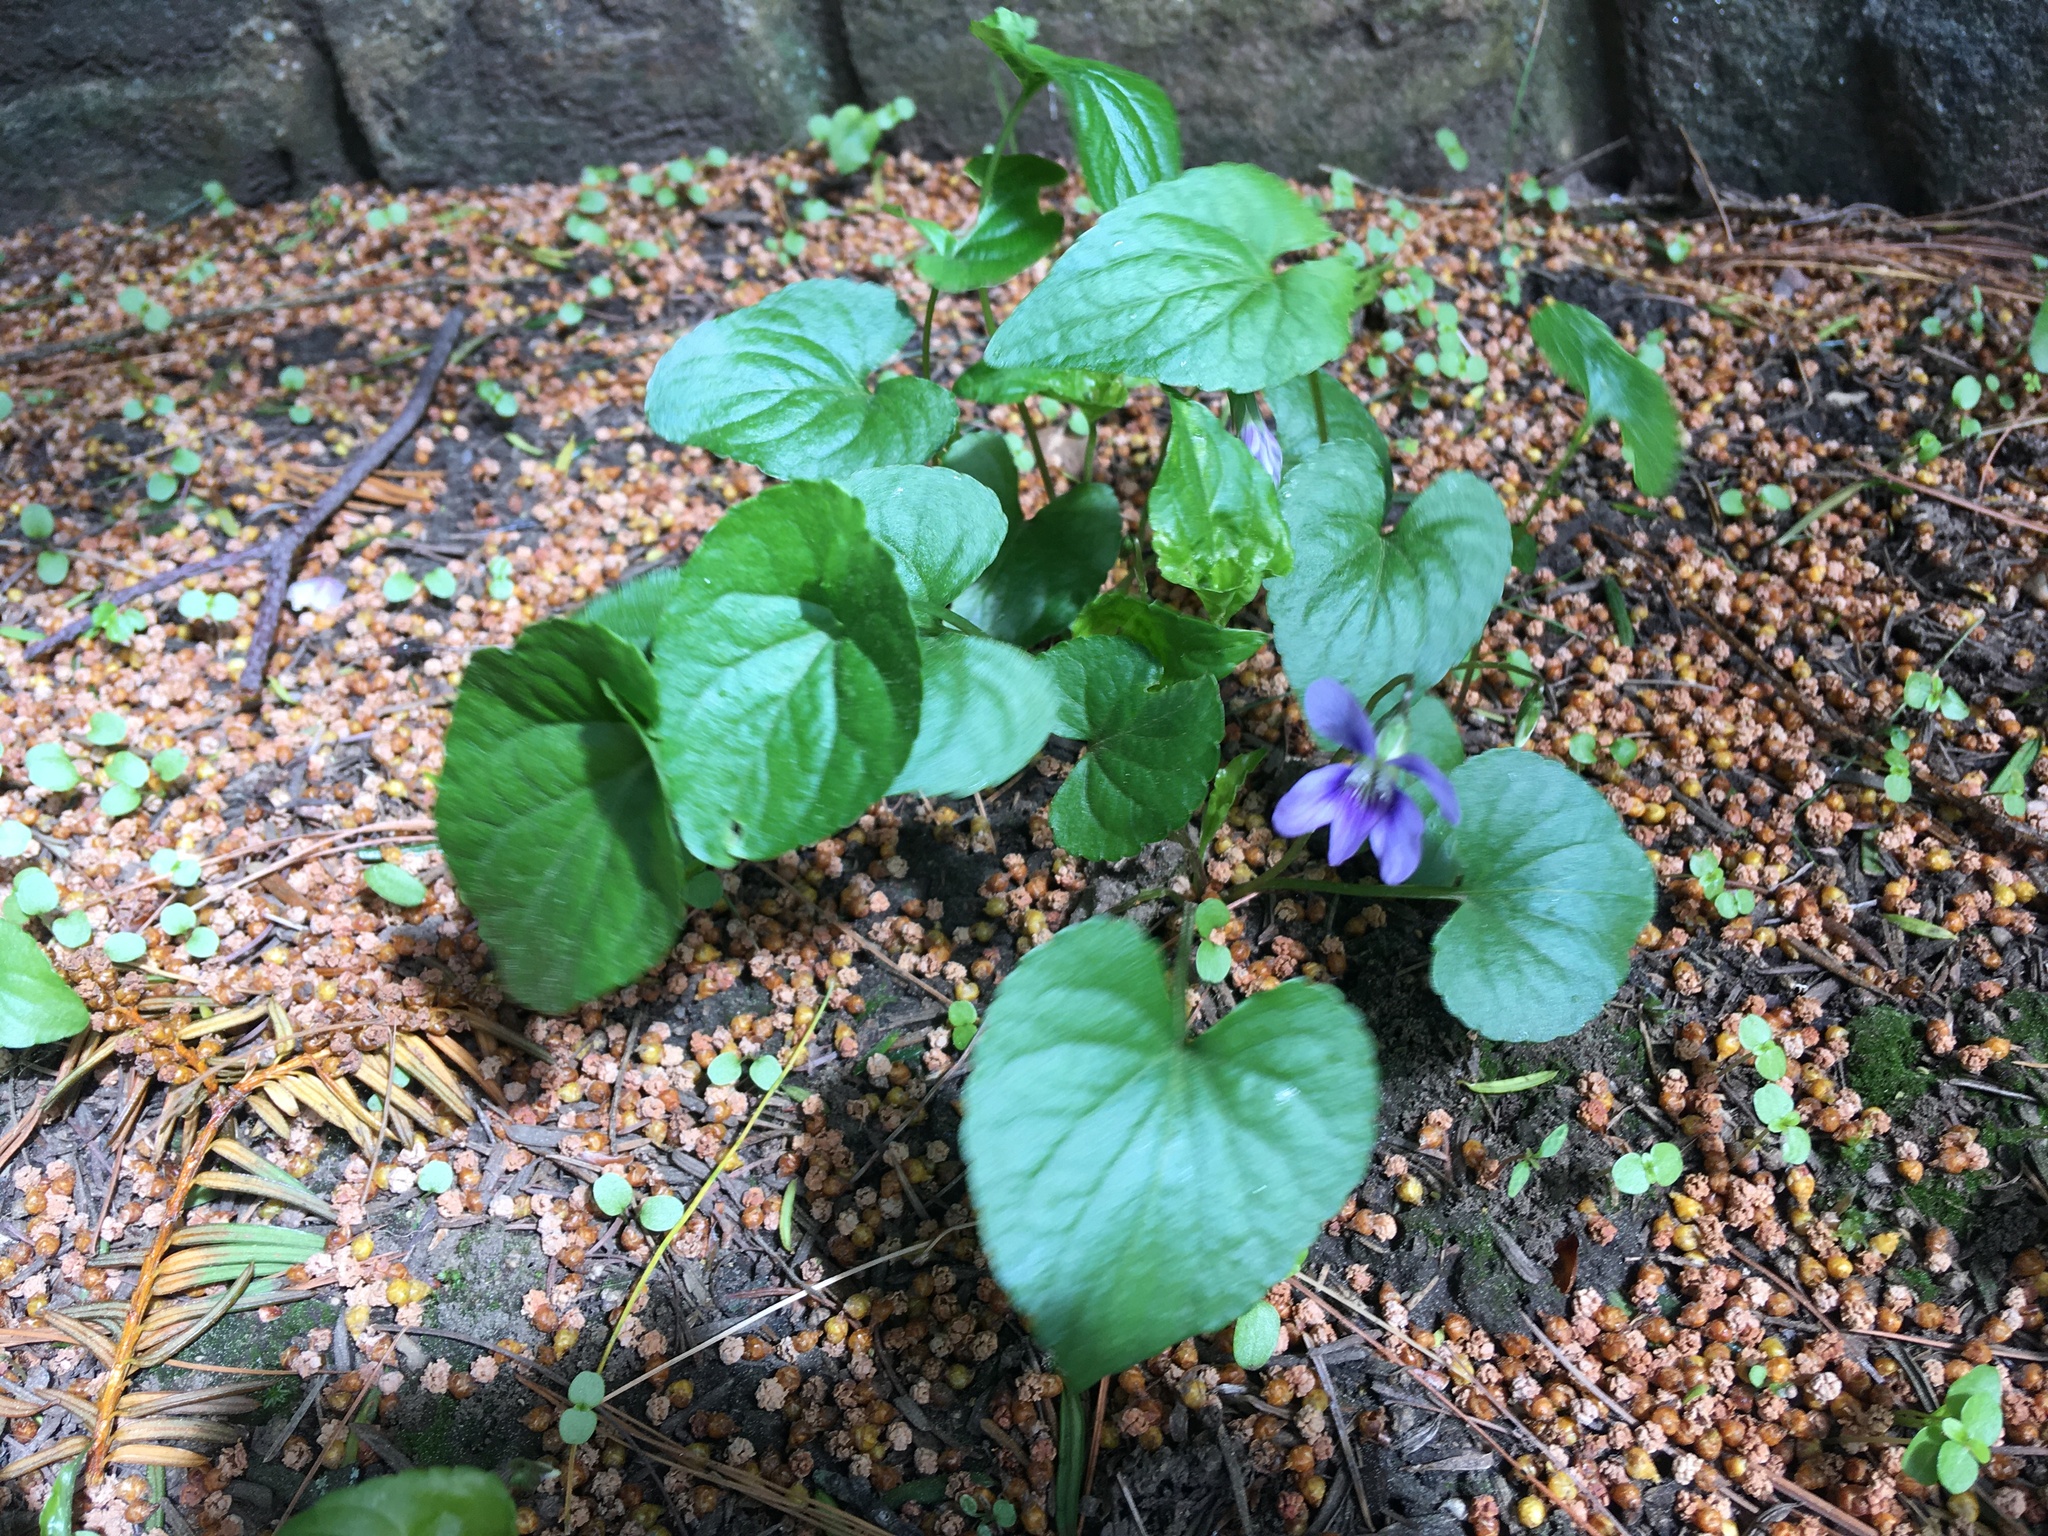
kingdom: Plantae
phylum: Tracheophyta
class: Magnoliopsida
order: Malpighiales
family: Violaceae
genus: Viola
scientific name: Viola sororia
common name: Dooryard violet
